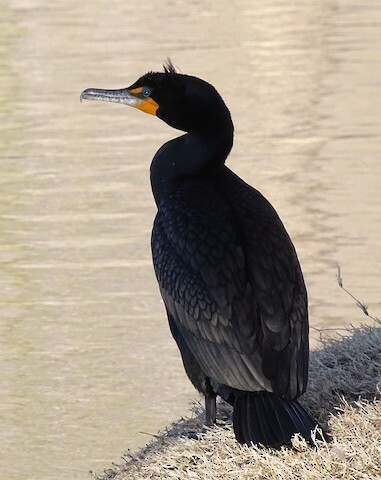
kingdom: Animalia
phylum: Chordata
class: Aves
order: Suliformes
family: Phalacrocoracidae
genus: Phalacrocorax
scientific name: Phalacrocorax auritus
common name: Double-crested cormorant
